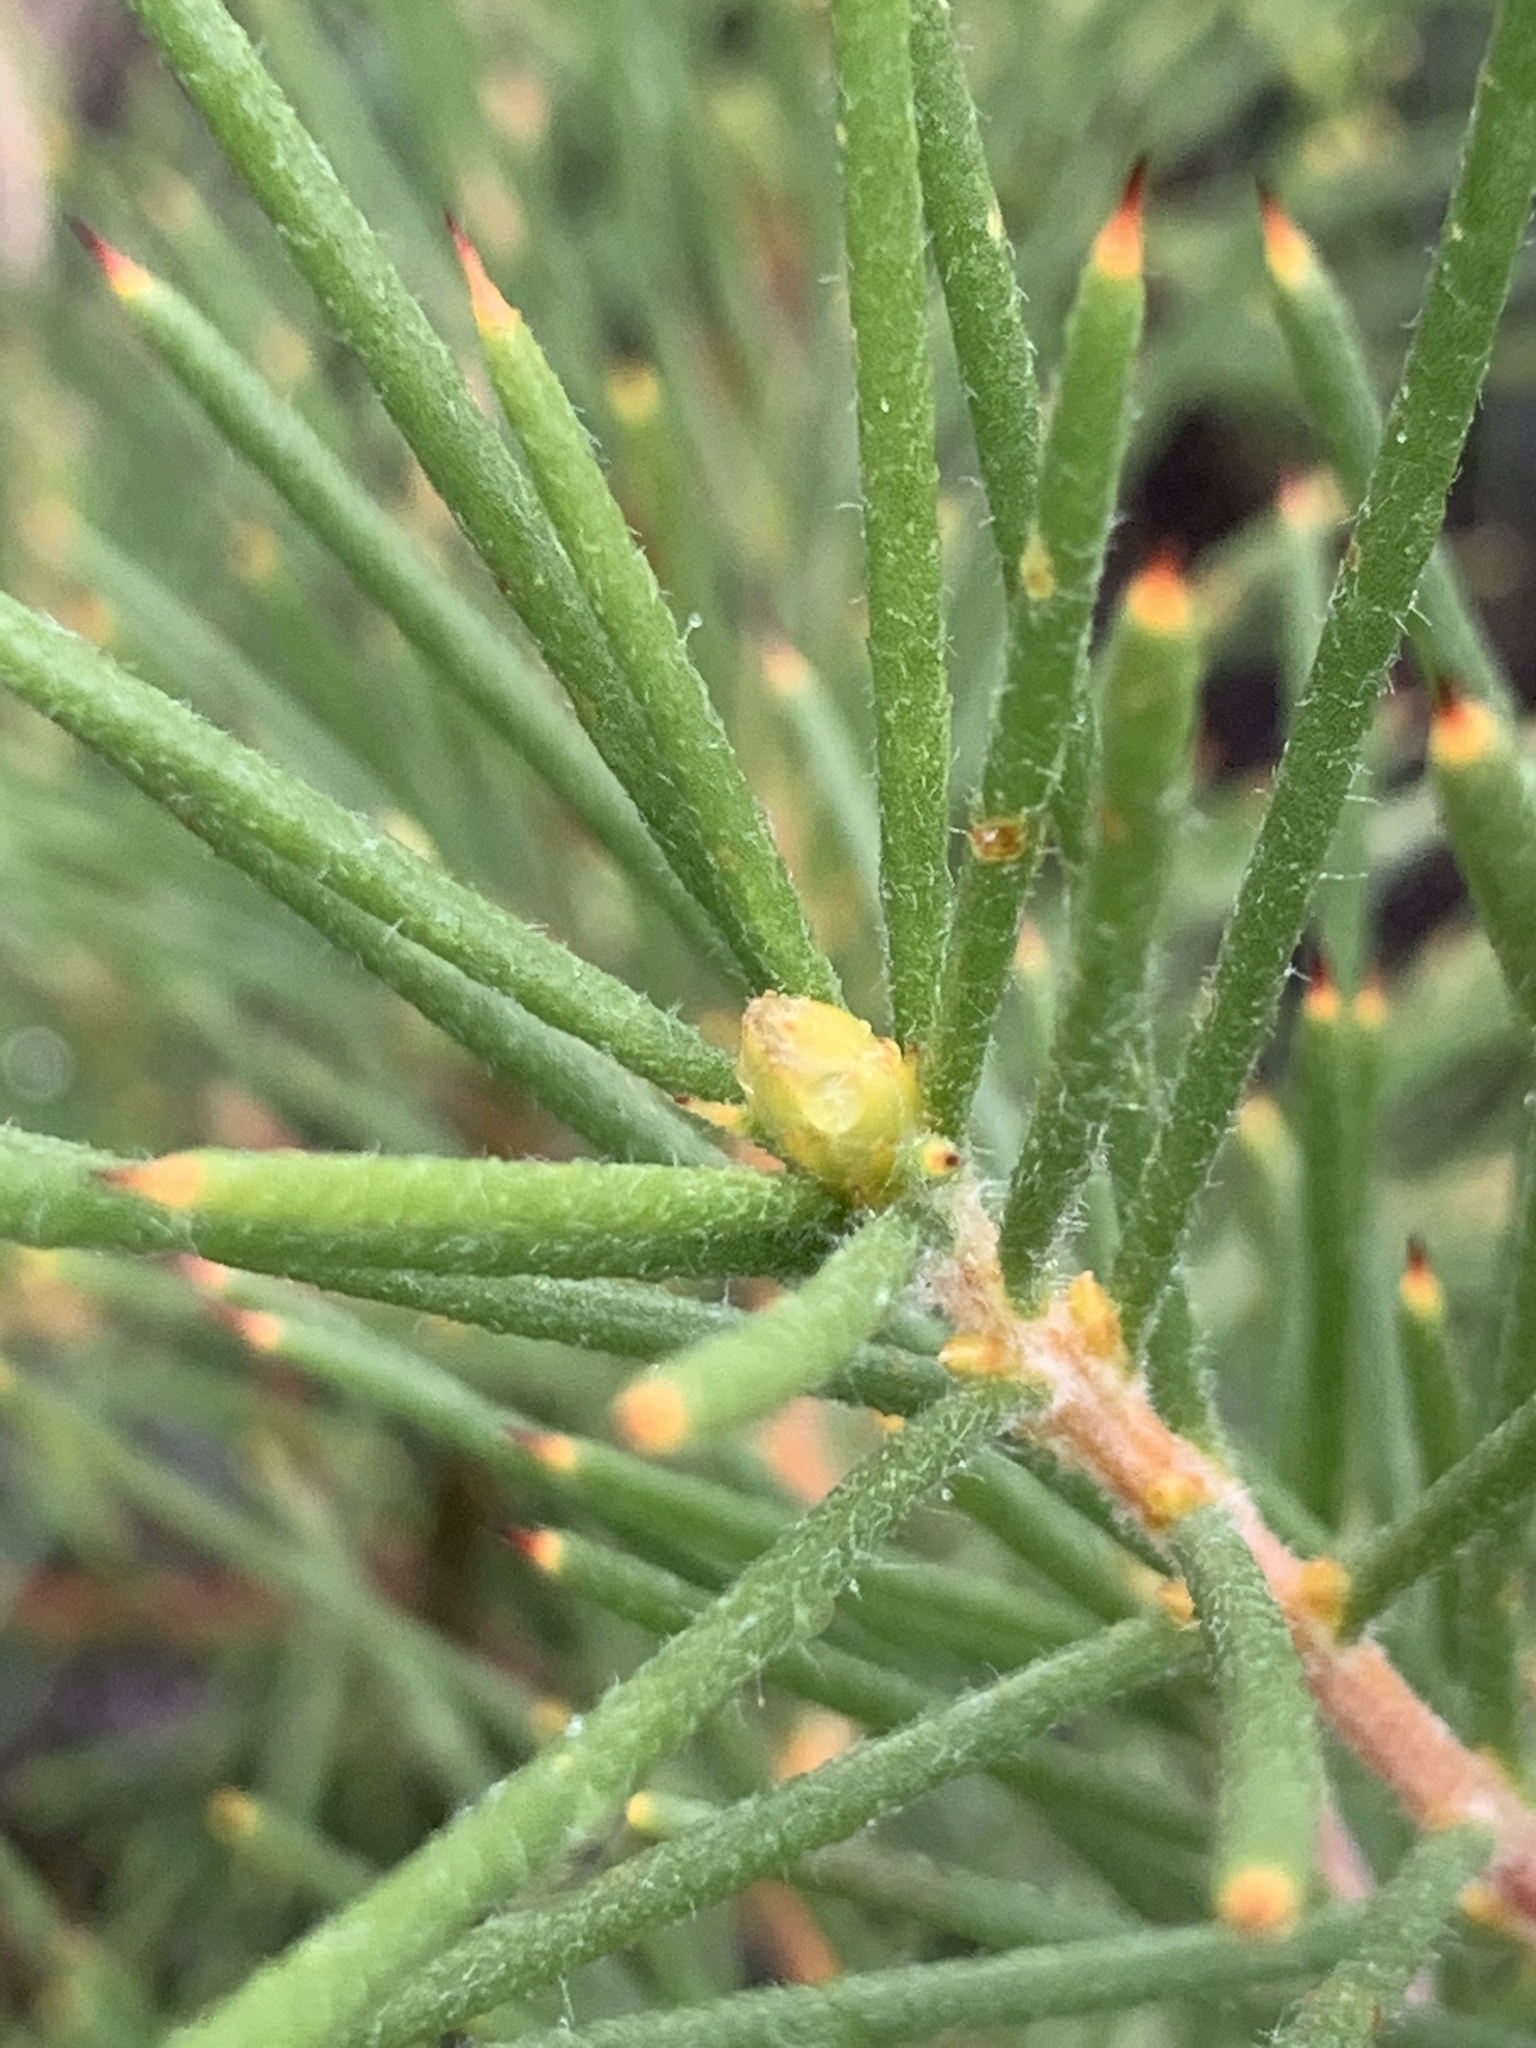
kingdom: Plantae
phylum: Tracheophyta
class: Magnoliopsida
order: Proteales
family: Proteaceae
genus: Hakea
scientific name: Hakea gibbosa
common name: Rock hakea
